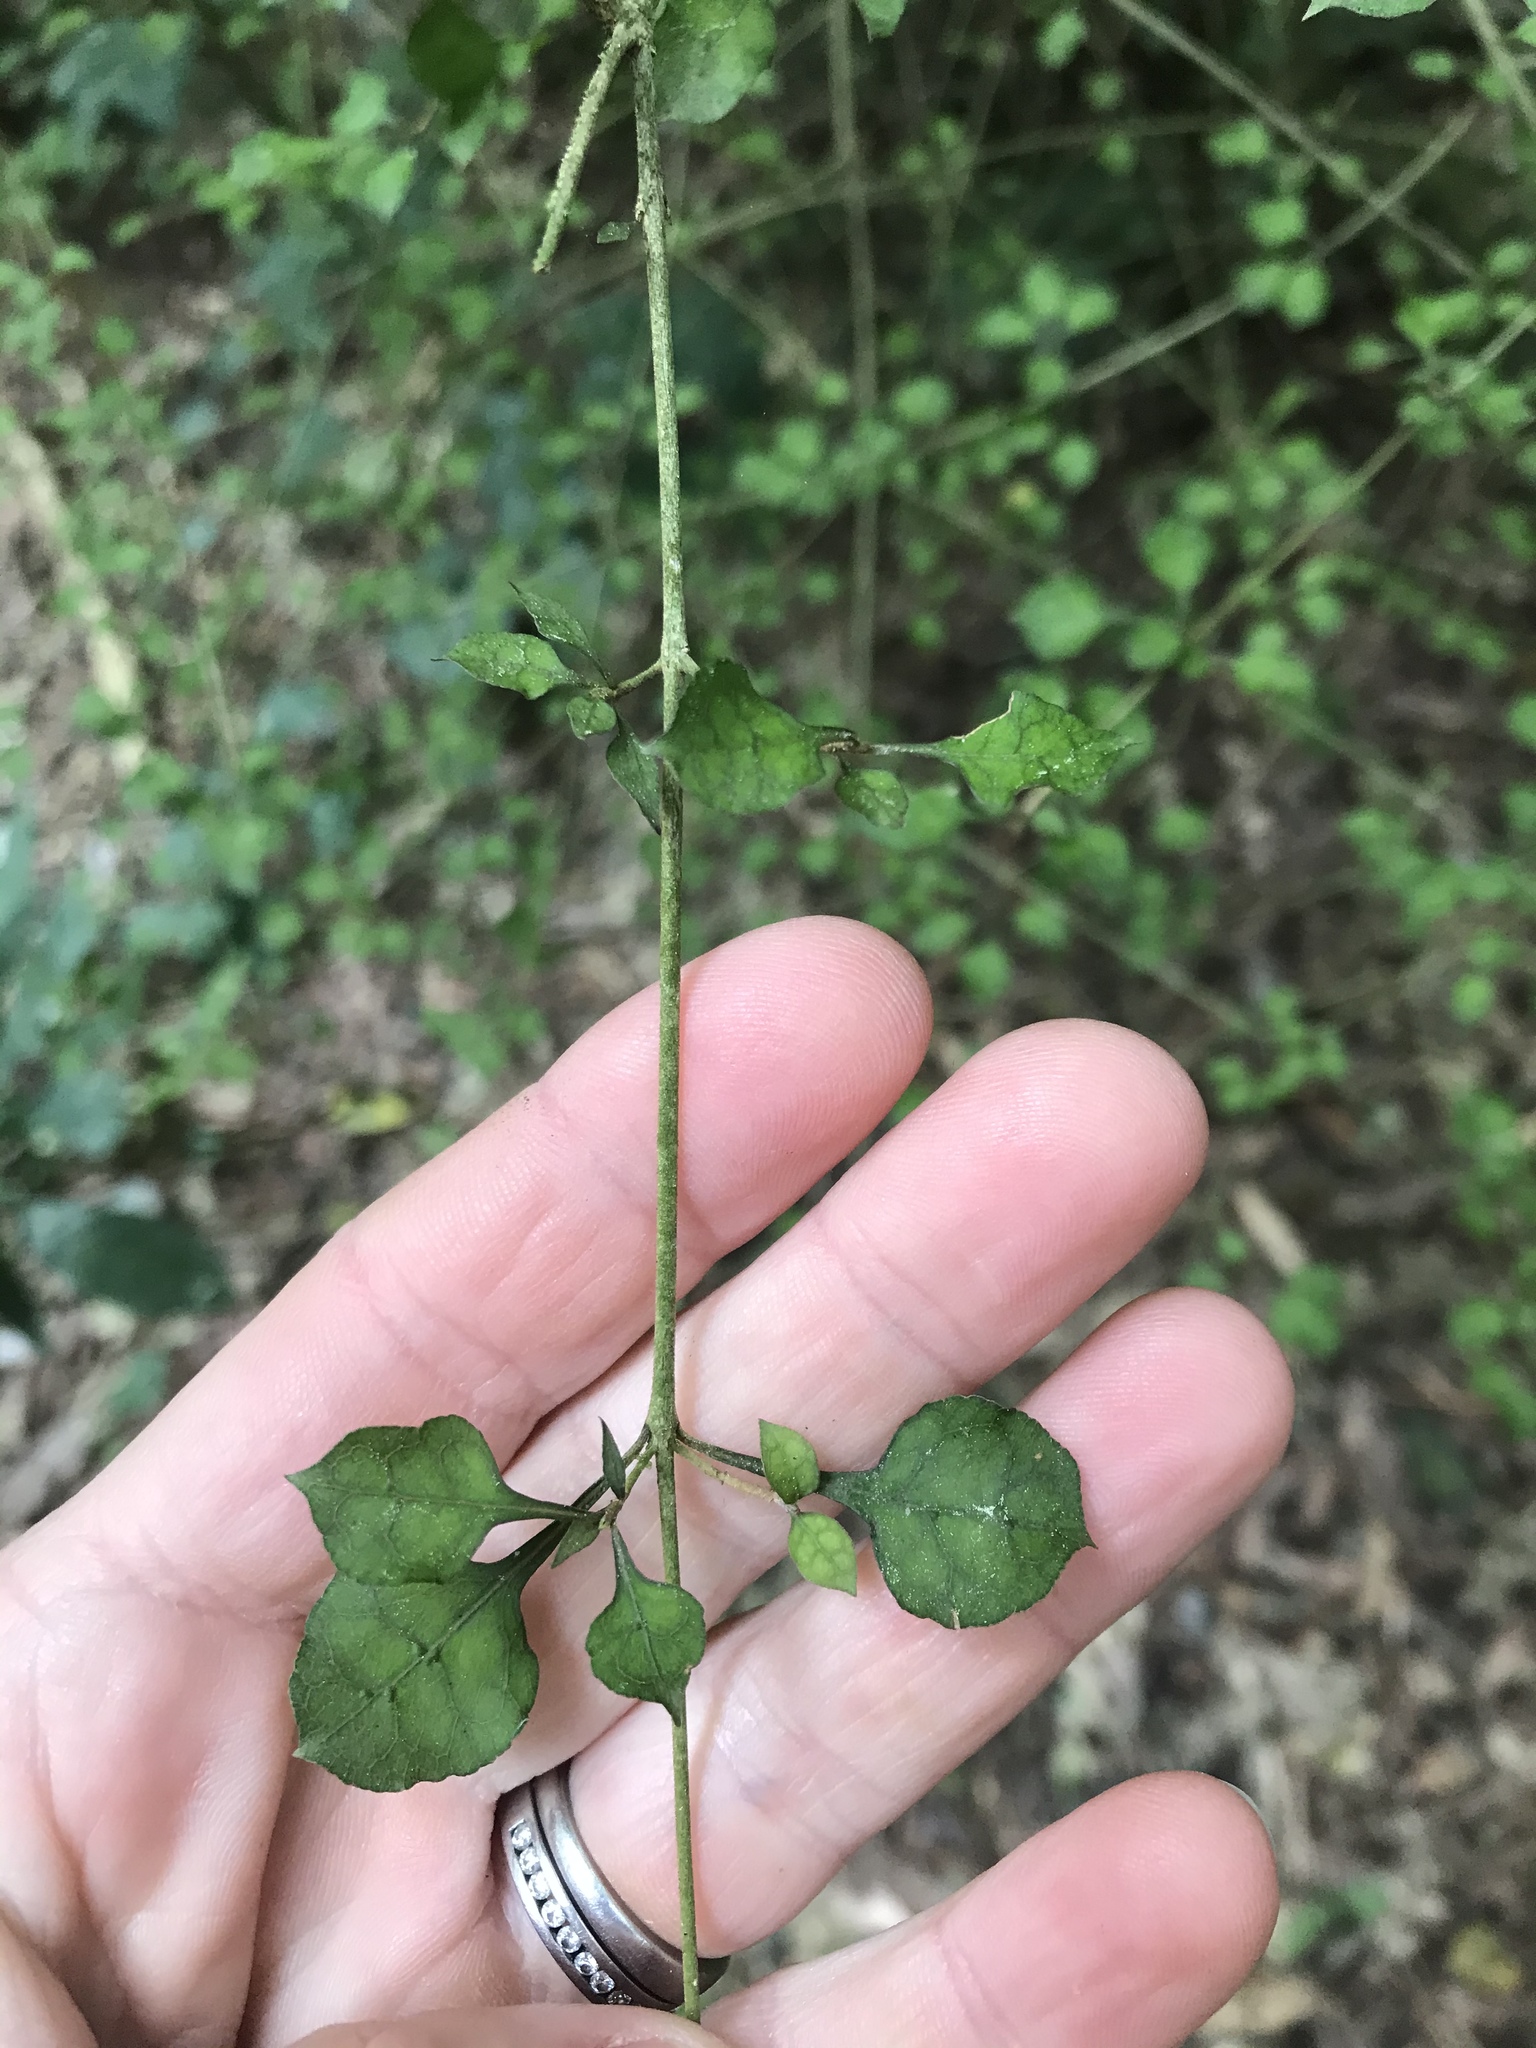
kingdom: Plantae
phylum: Tracheophyta
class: Magnoliopsida
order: Gentianales
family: Rubiaceae
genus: Coprosma
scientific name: Coprosma areolata
